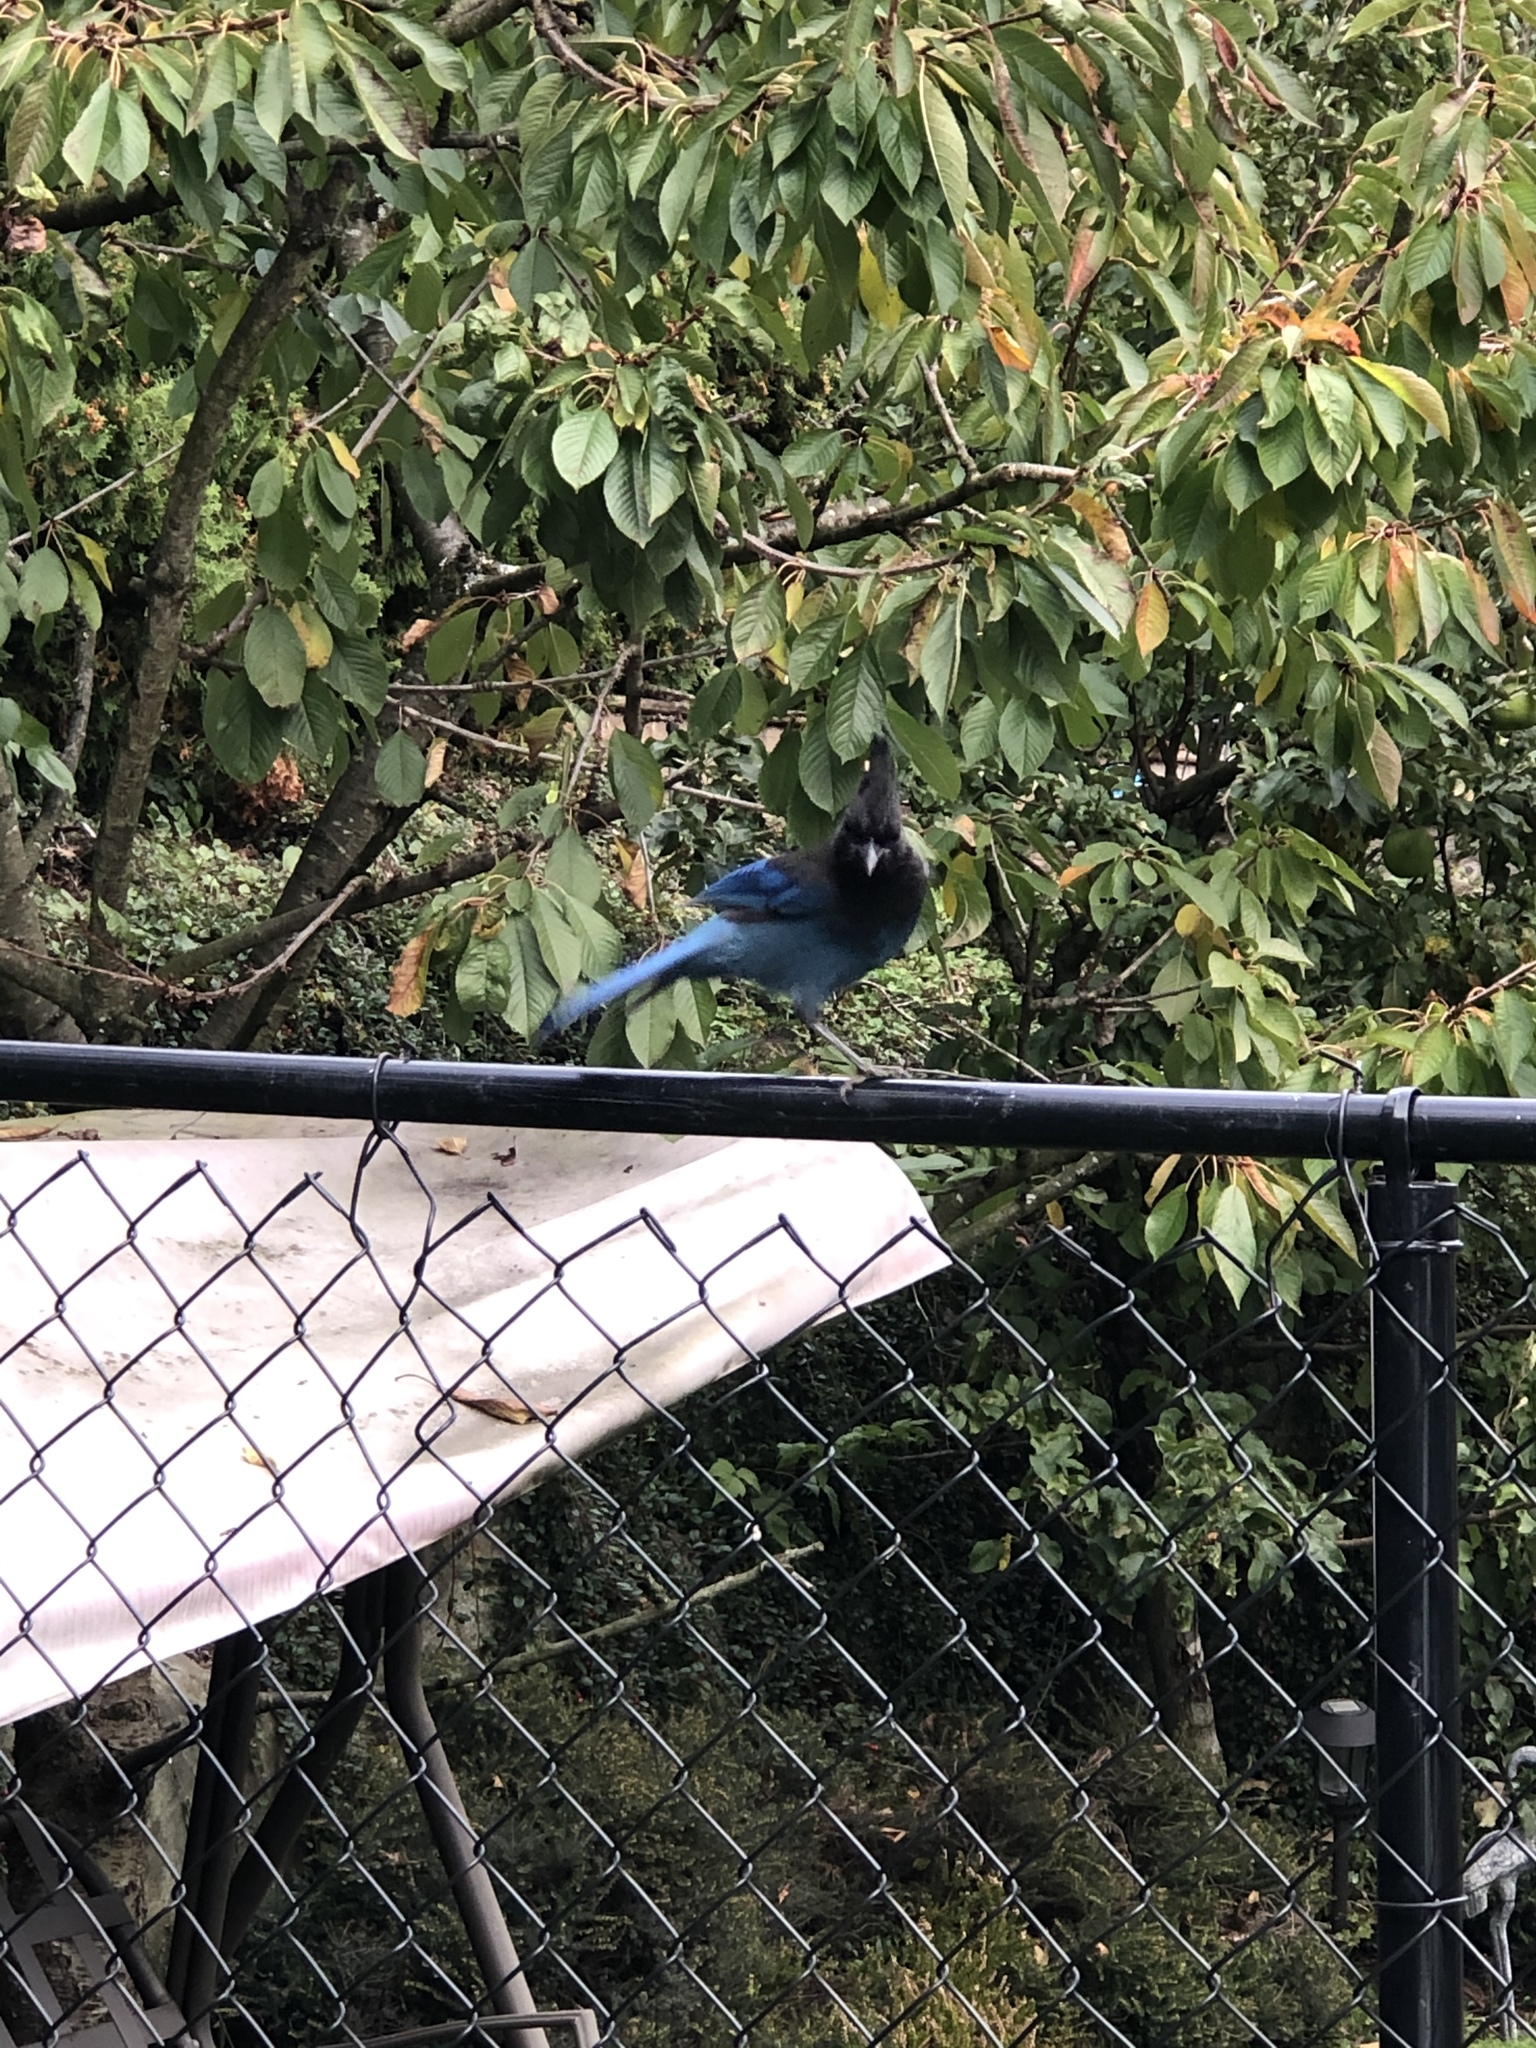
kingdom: Animalia
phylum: Chordata
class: Aves
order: Passeriformes
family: Corvidae
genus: Cyanocitta
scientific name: Cyanocitta stelleri
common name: Steller's jay
